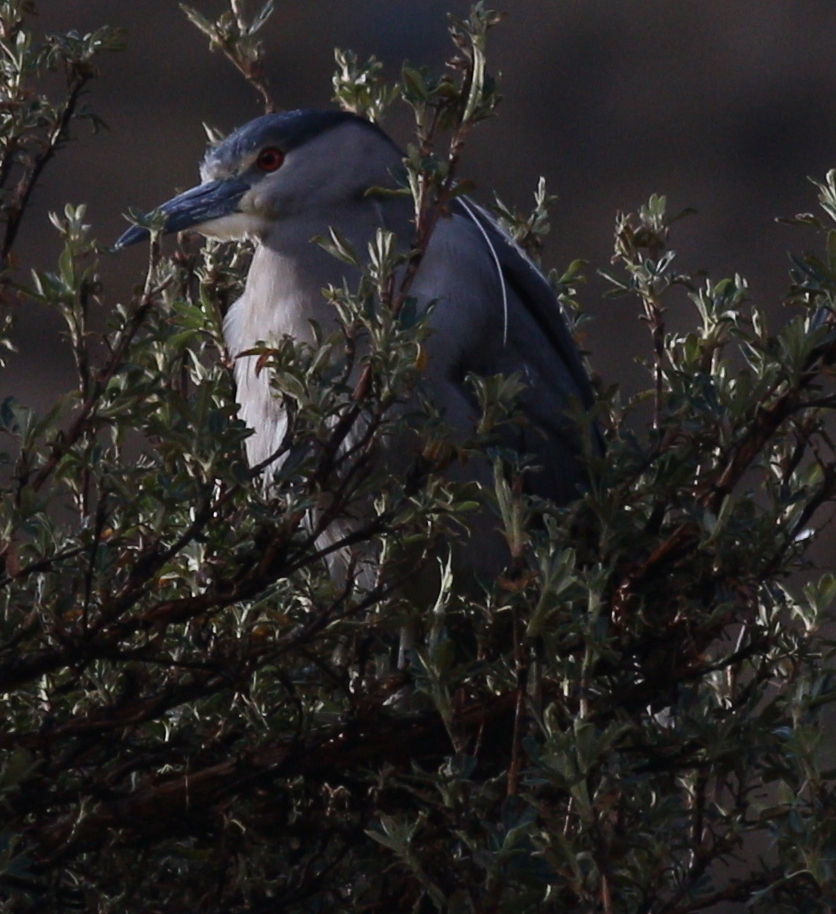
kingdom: Animalia
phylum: Chordata
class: Aves
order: Pelecaniformes
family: Ardeidae
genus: Nycticorax
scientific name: Nycticorax nycticorax
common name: Black-crowned night heron
